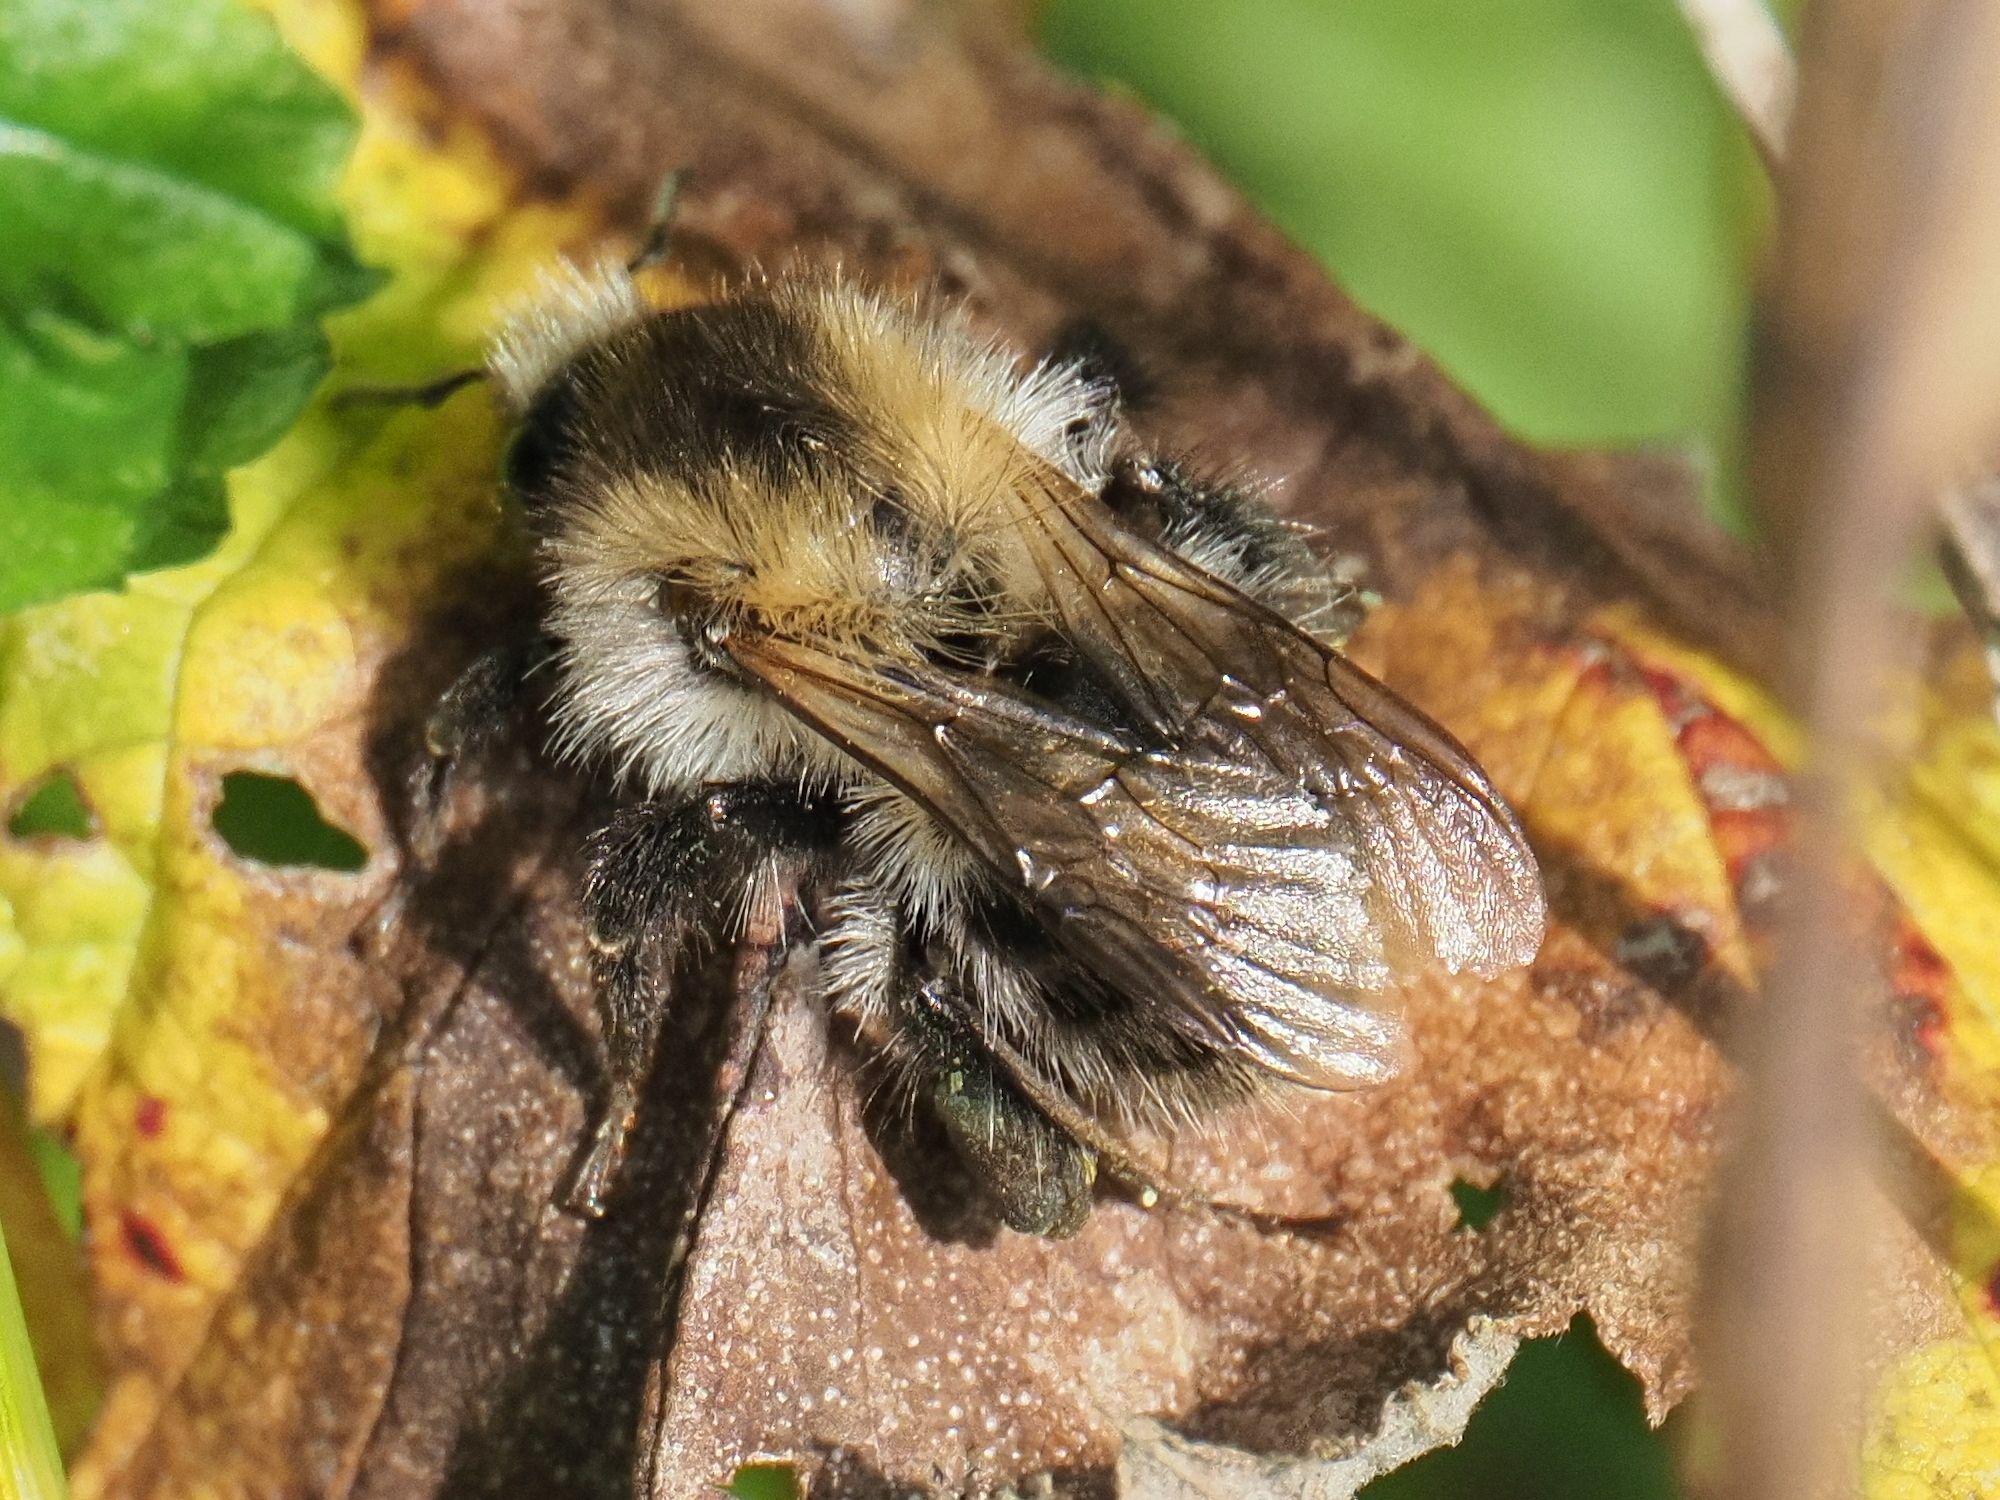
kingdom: Animalia
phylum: Arthropoda
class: Insecta
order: Hymenoptera
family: Apidae
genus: Bombus
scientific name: Bombus pascuorum
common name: Common carder bee
